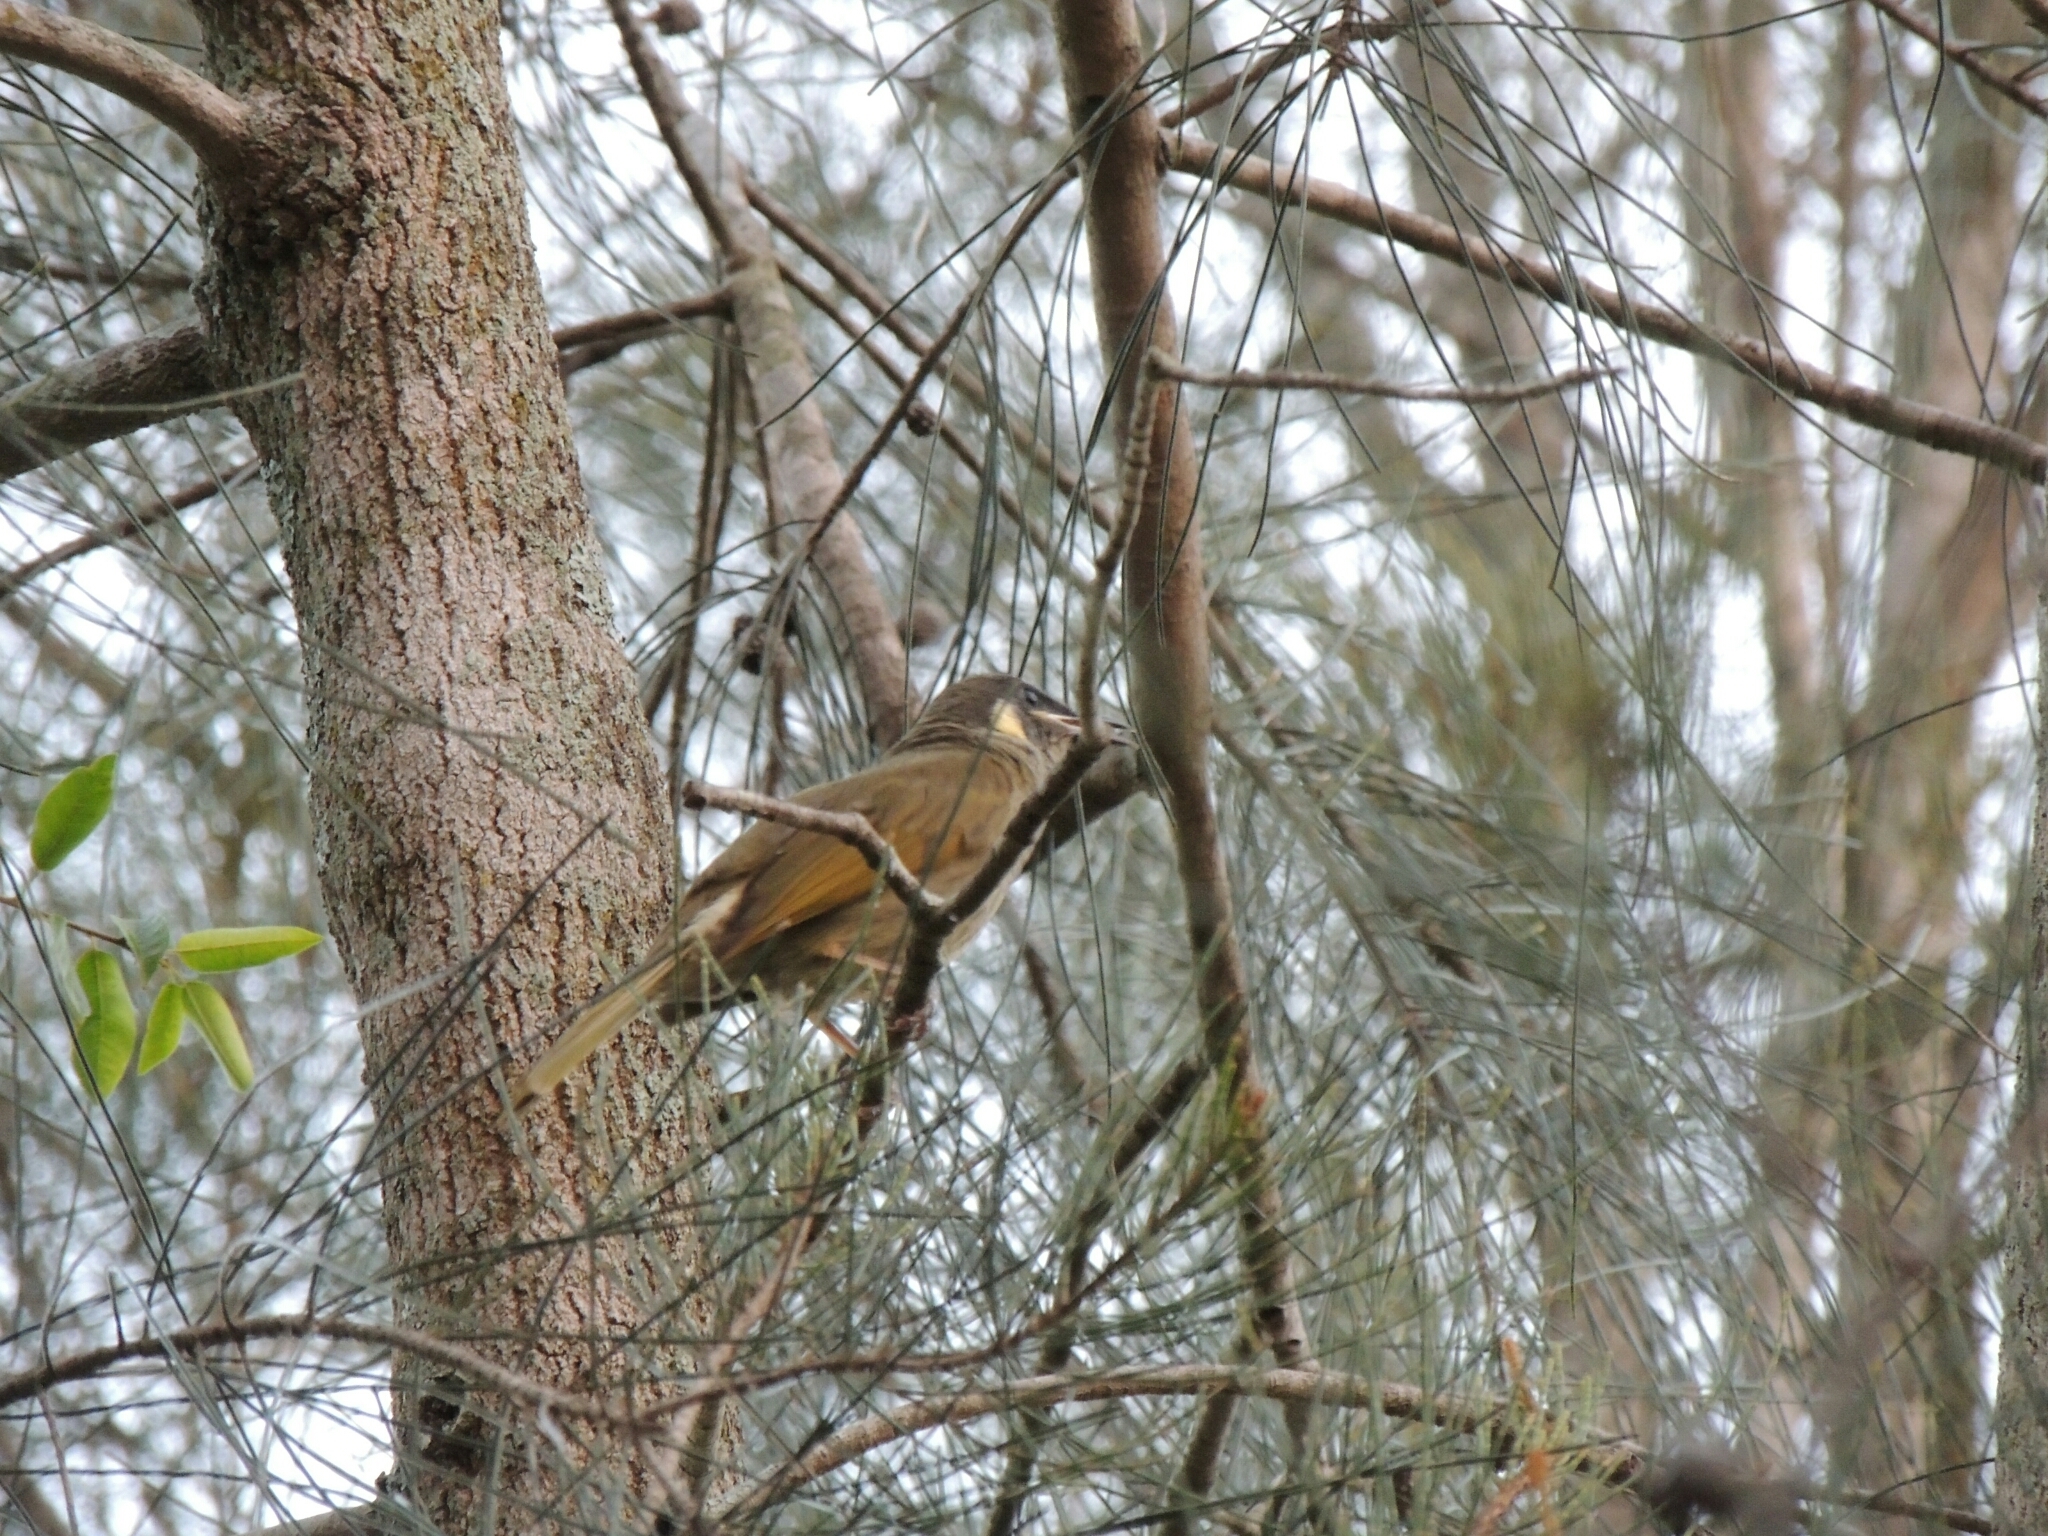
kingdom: Animalia
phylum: Chordata
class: Aves
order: Passeriformes
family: Meliphagidae
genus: Meliphaga
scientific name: Meliphaga lewinii
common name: Lewin's honeyeater
